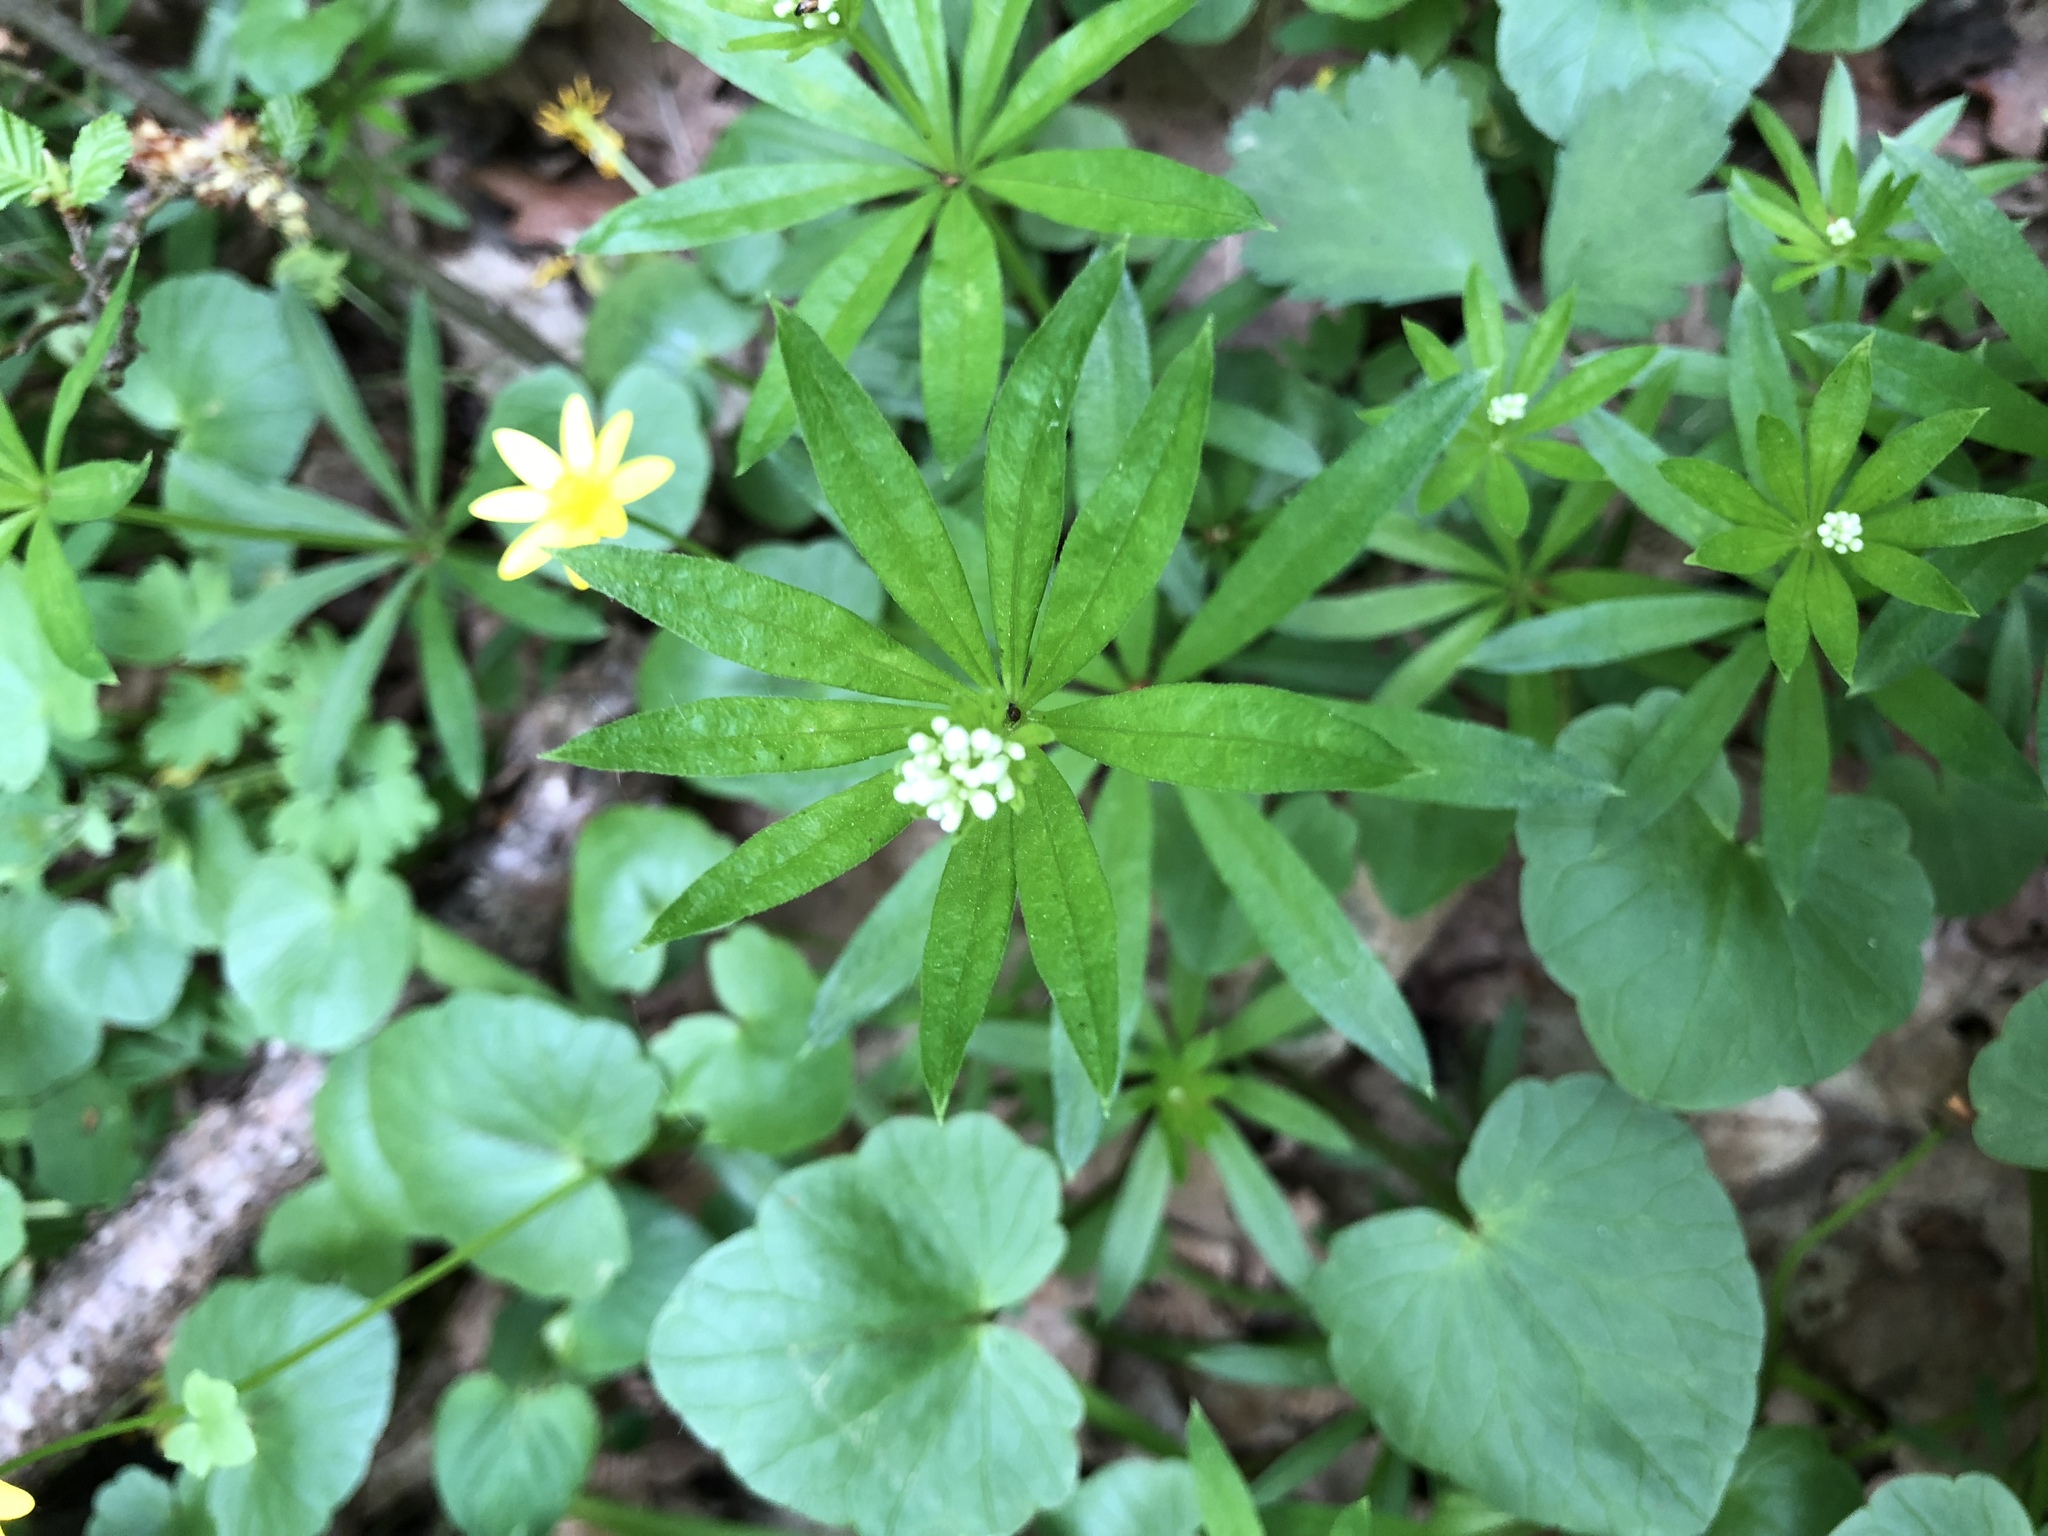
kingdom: Plantae
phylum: Tracheophyta
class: Magnoliopsida
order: Gentianales
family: Rubiaceae
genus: Galium
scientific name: Galium odoratum
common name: Sweet woodruff
